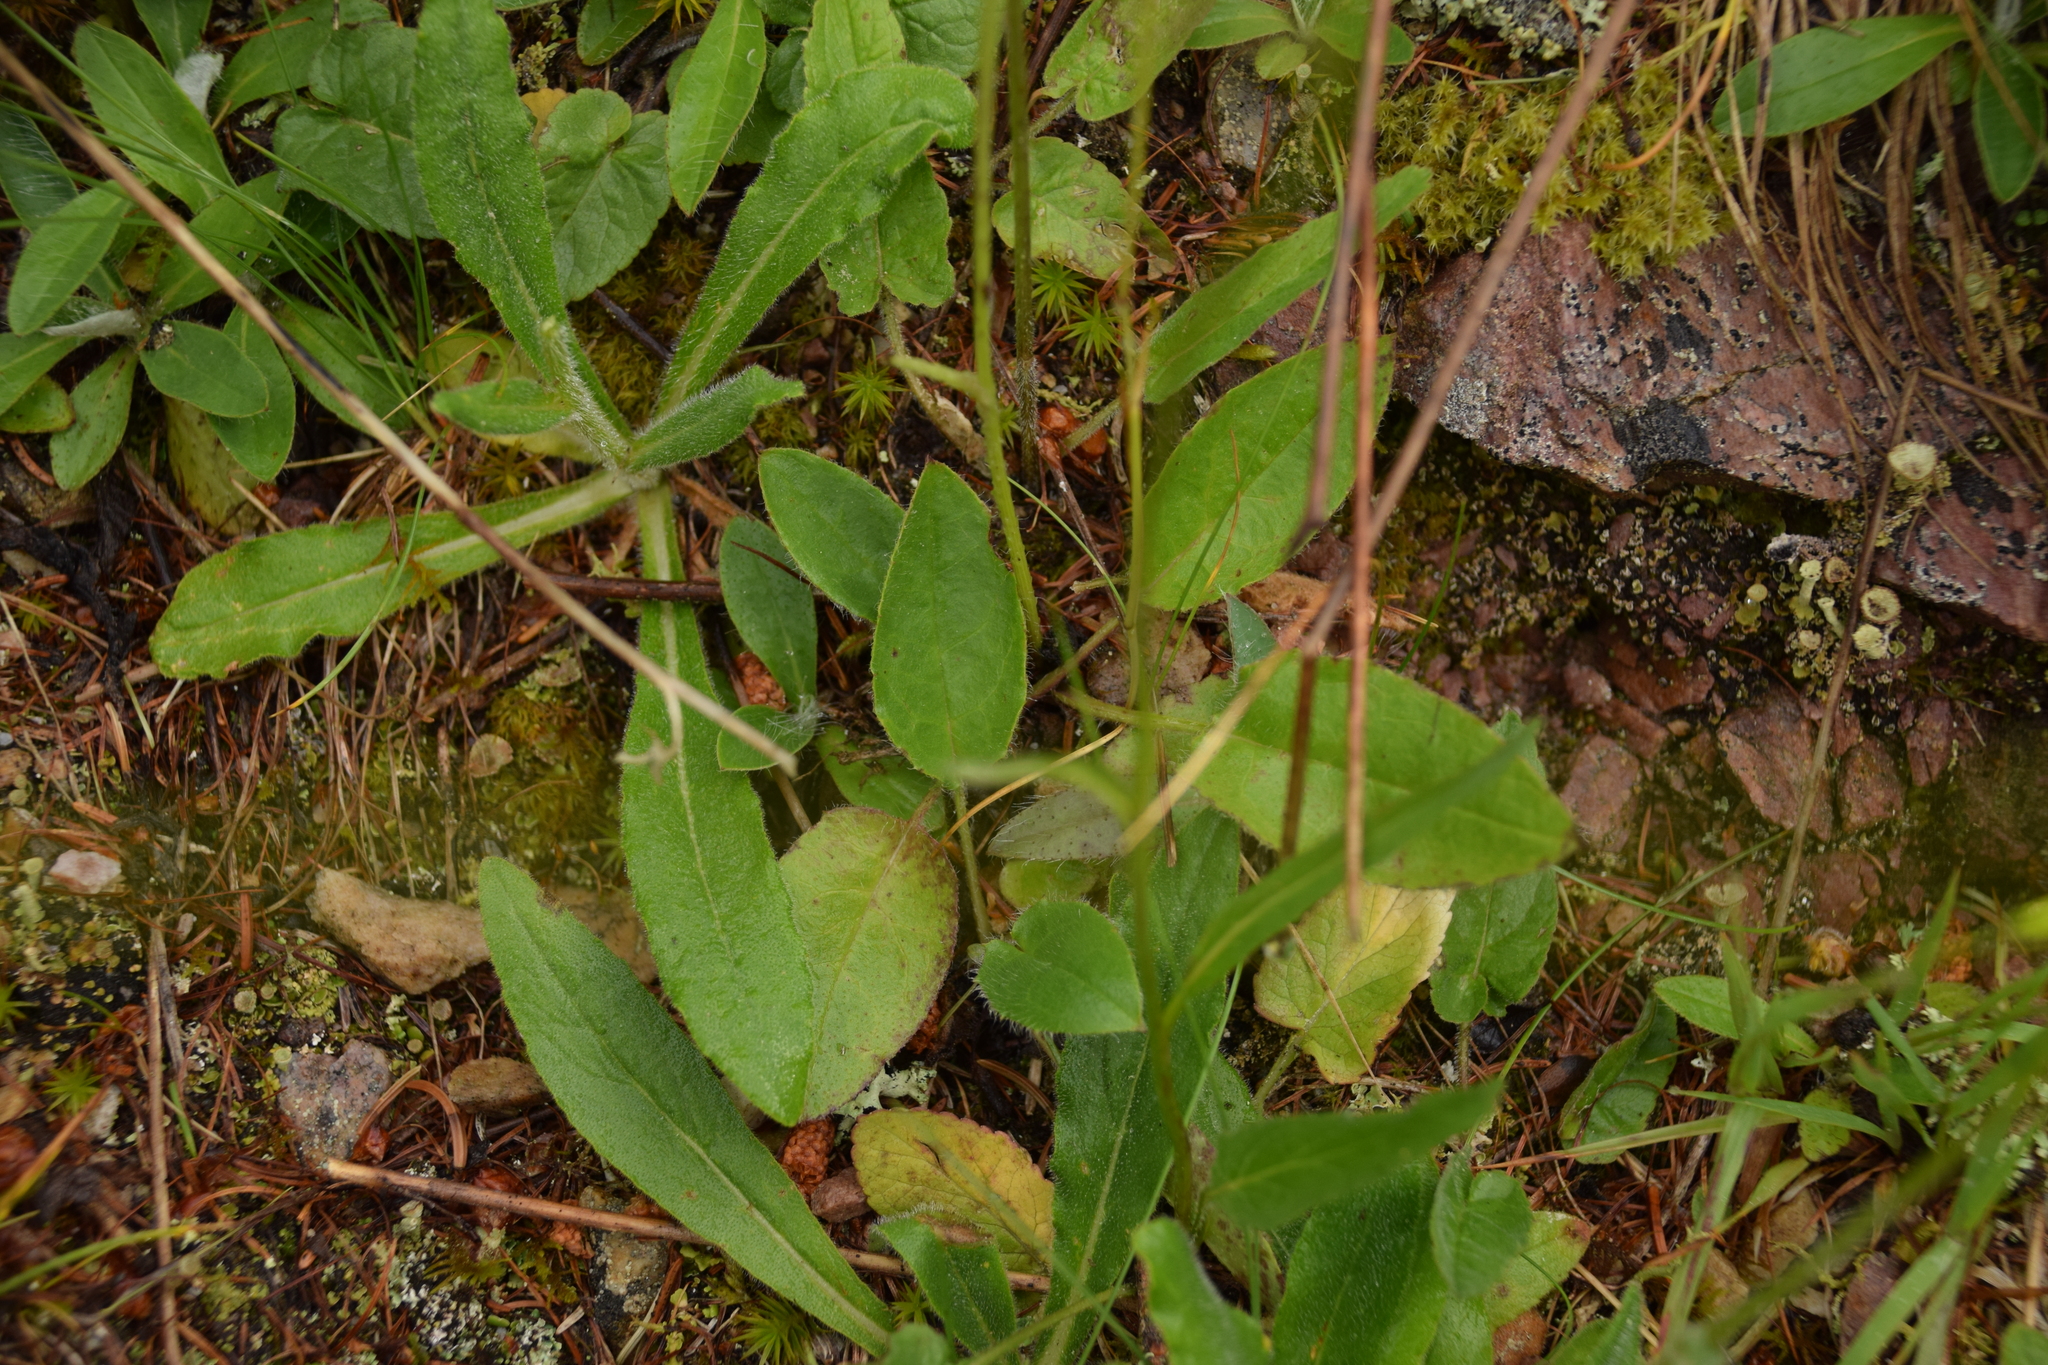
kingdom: Plantae
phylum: Tracheophyta
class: Magnoliopsida
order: Asterales
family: Campanulaceae
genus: Phyteuma
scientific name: Phyteuma betonicifolium
